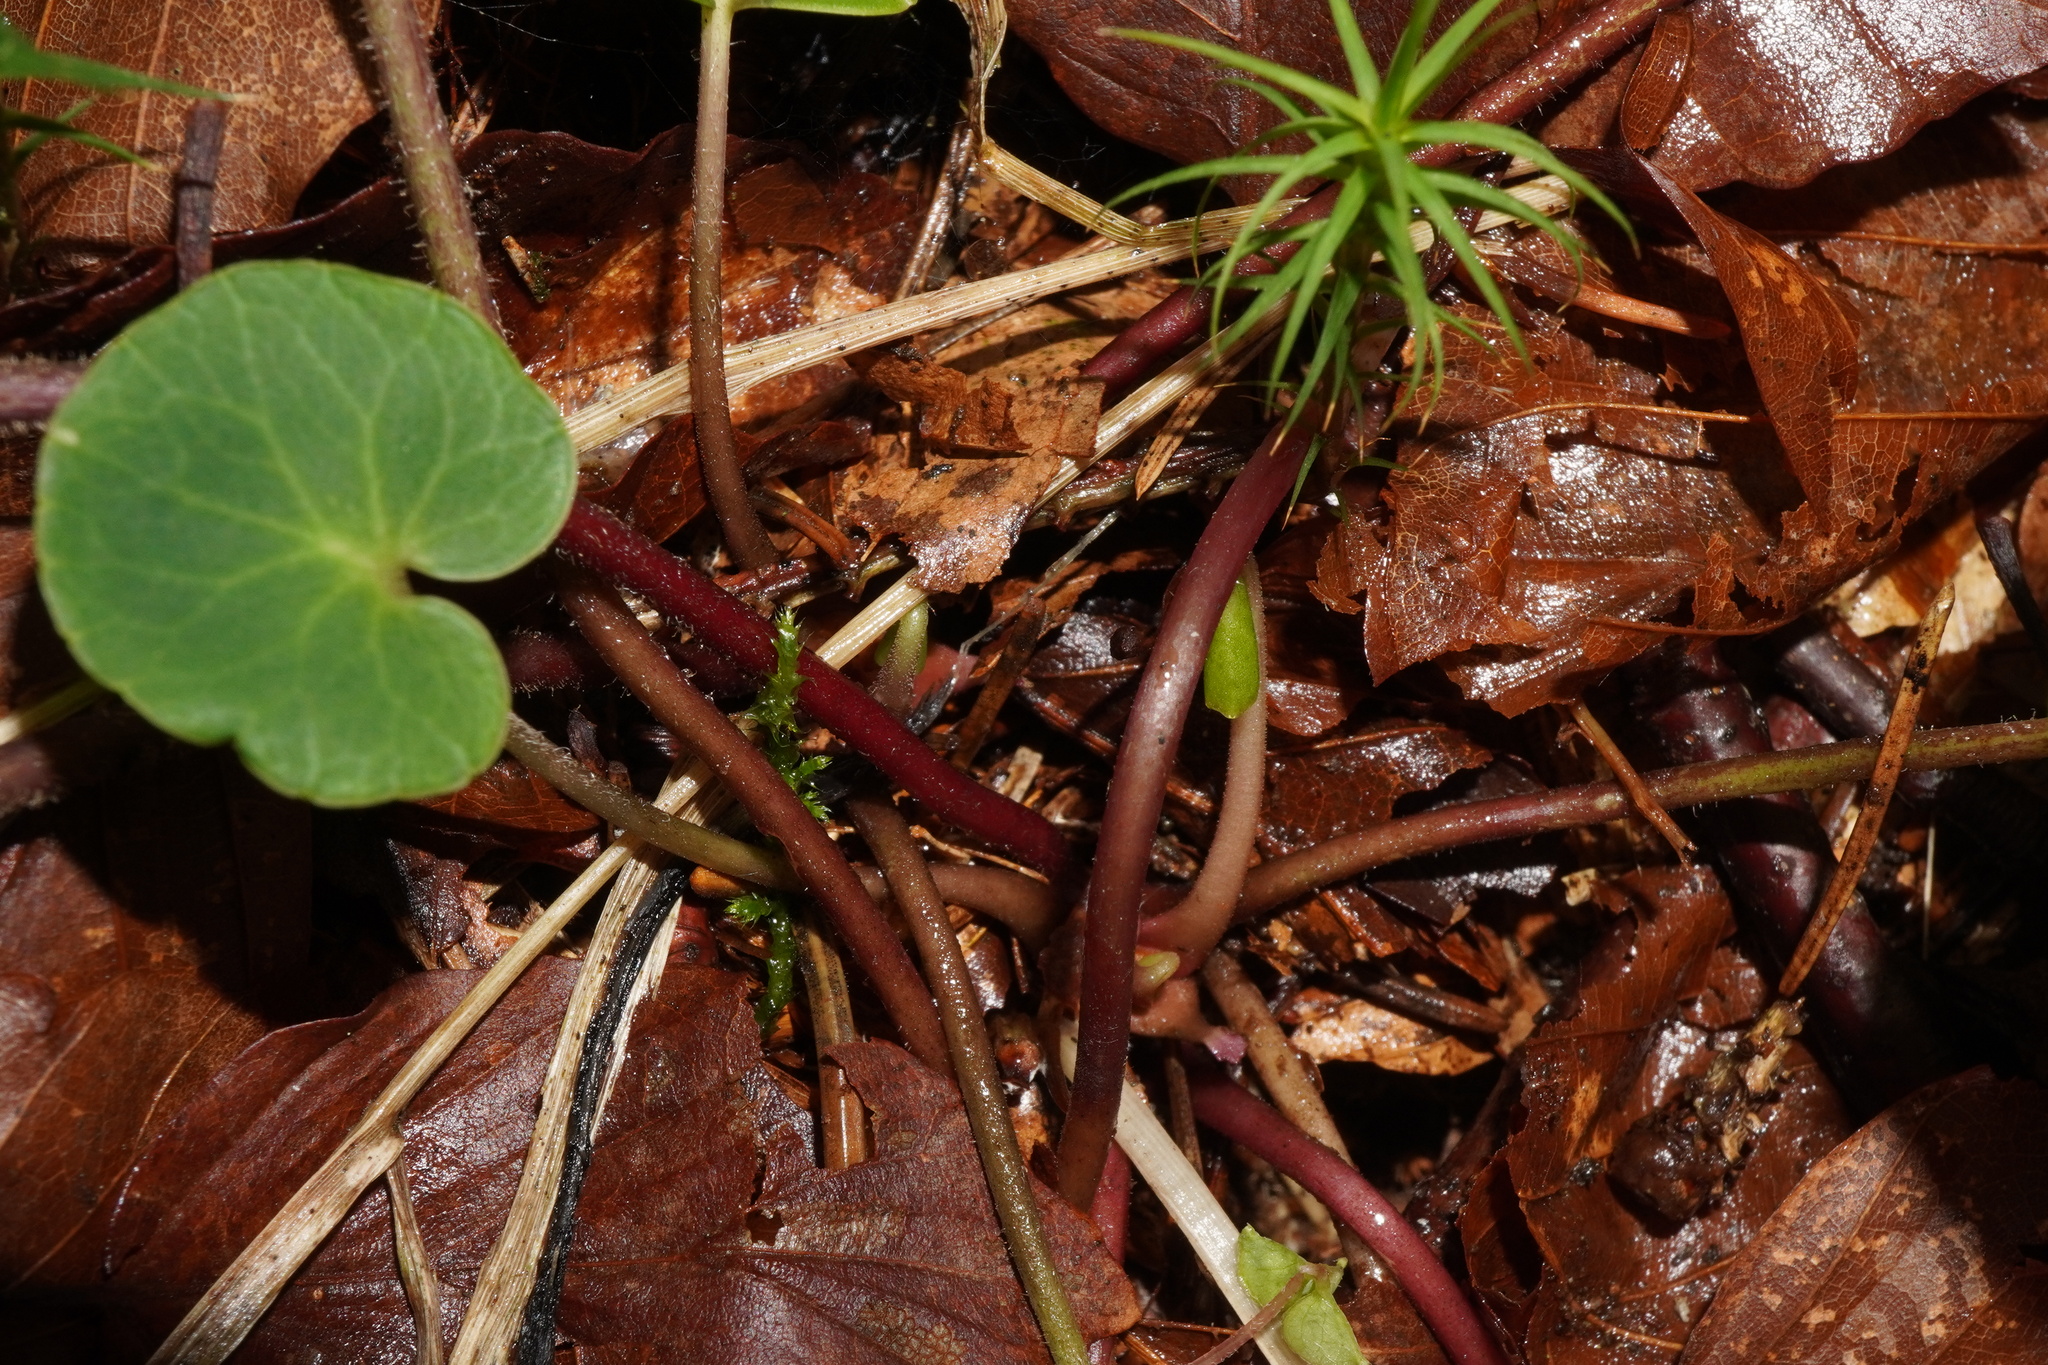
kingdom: Plantae
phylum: Tracheophyta
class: Magnoliopsida
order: Ericales
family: Primulaceae
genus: Soldanella
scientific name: Soldanella montana
